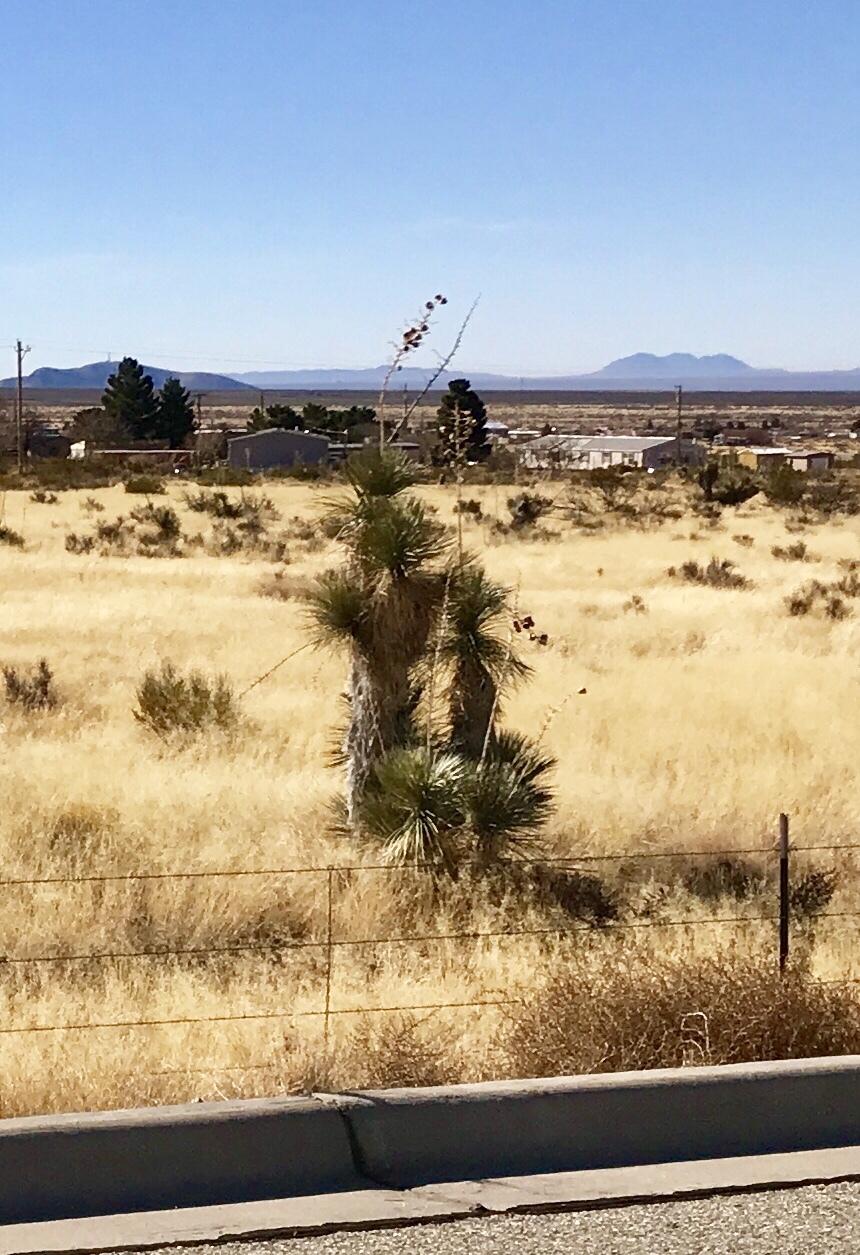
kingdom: Plantae
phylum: Tracheophyta
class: Liliopsida
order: Asparagales
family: Asparagaceae
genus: Yucca
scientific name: Yucca elata
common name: Palmella
